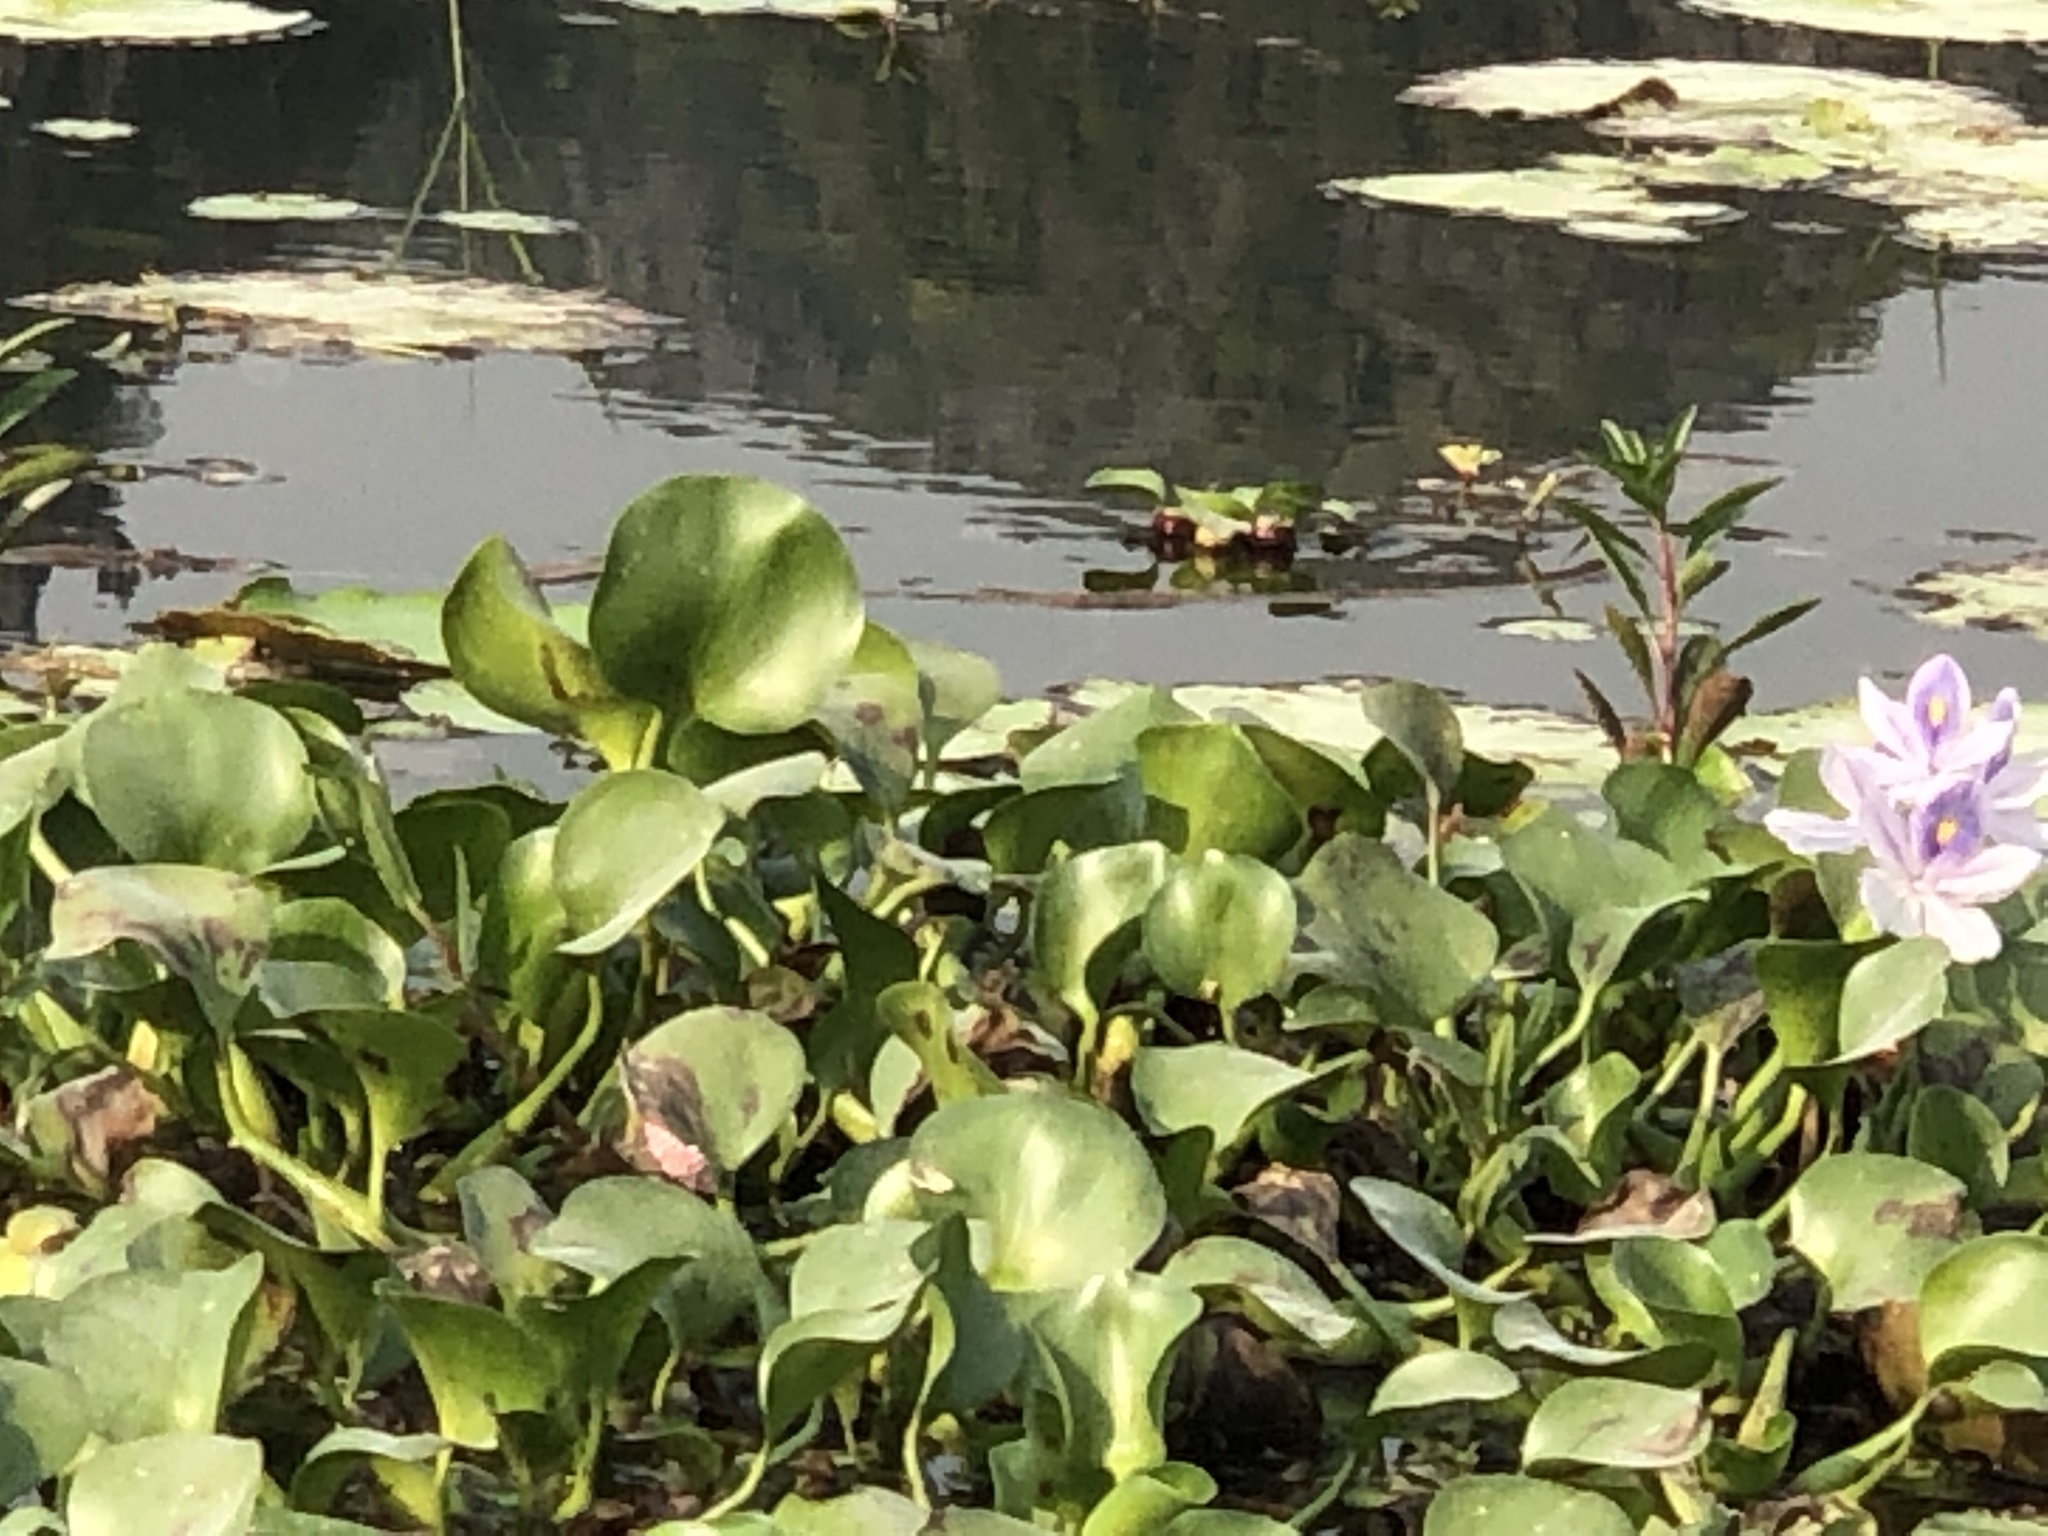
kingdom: Plantae
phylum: Tracheophyta
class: Liliopsida
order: Commelinales
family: Pontederiaceae
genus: Pontederia
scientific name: Pontederia crassipes
